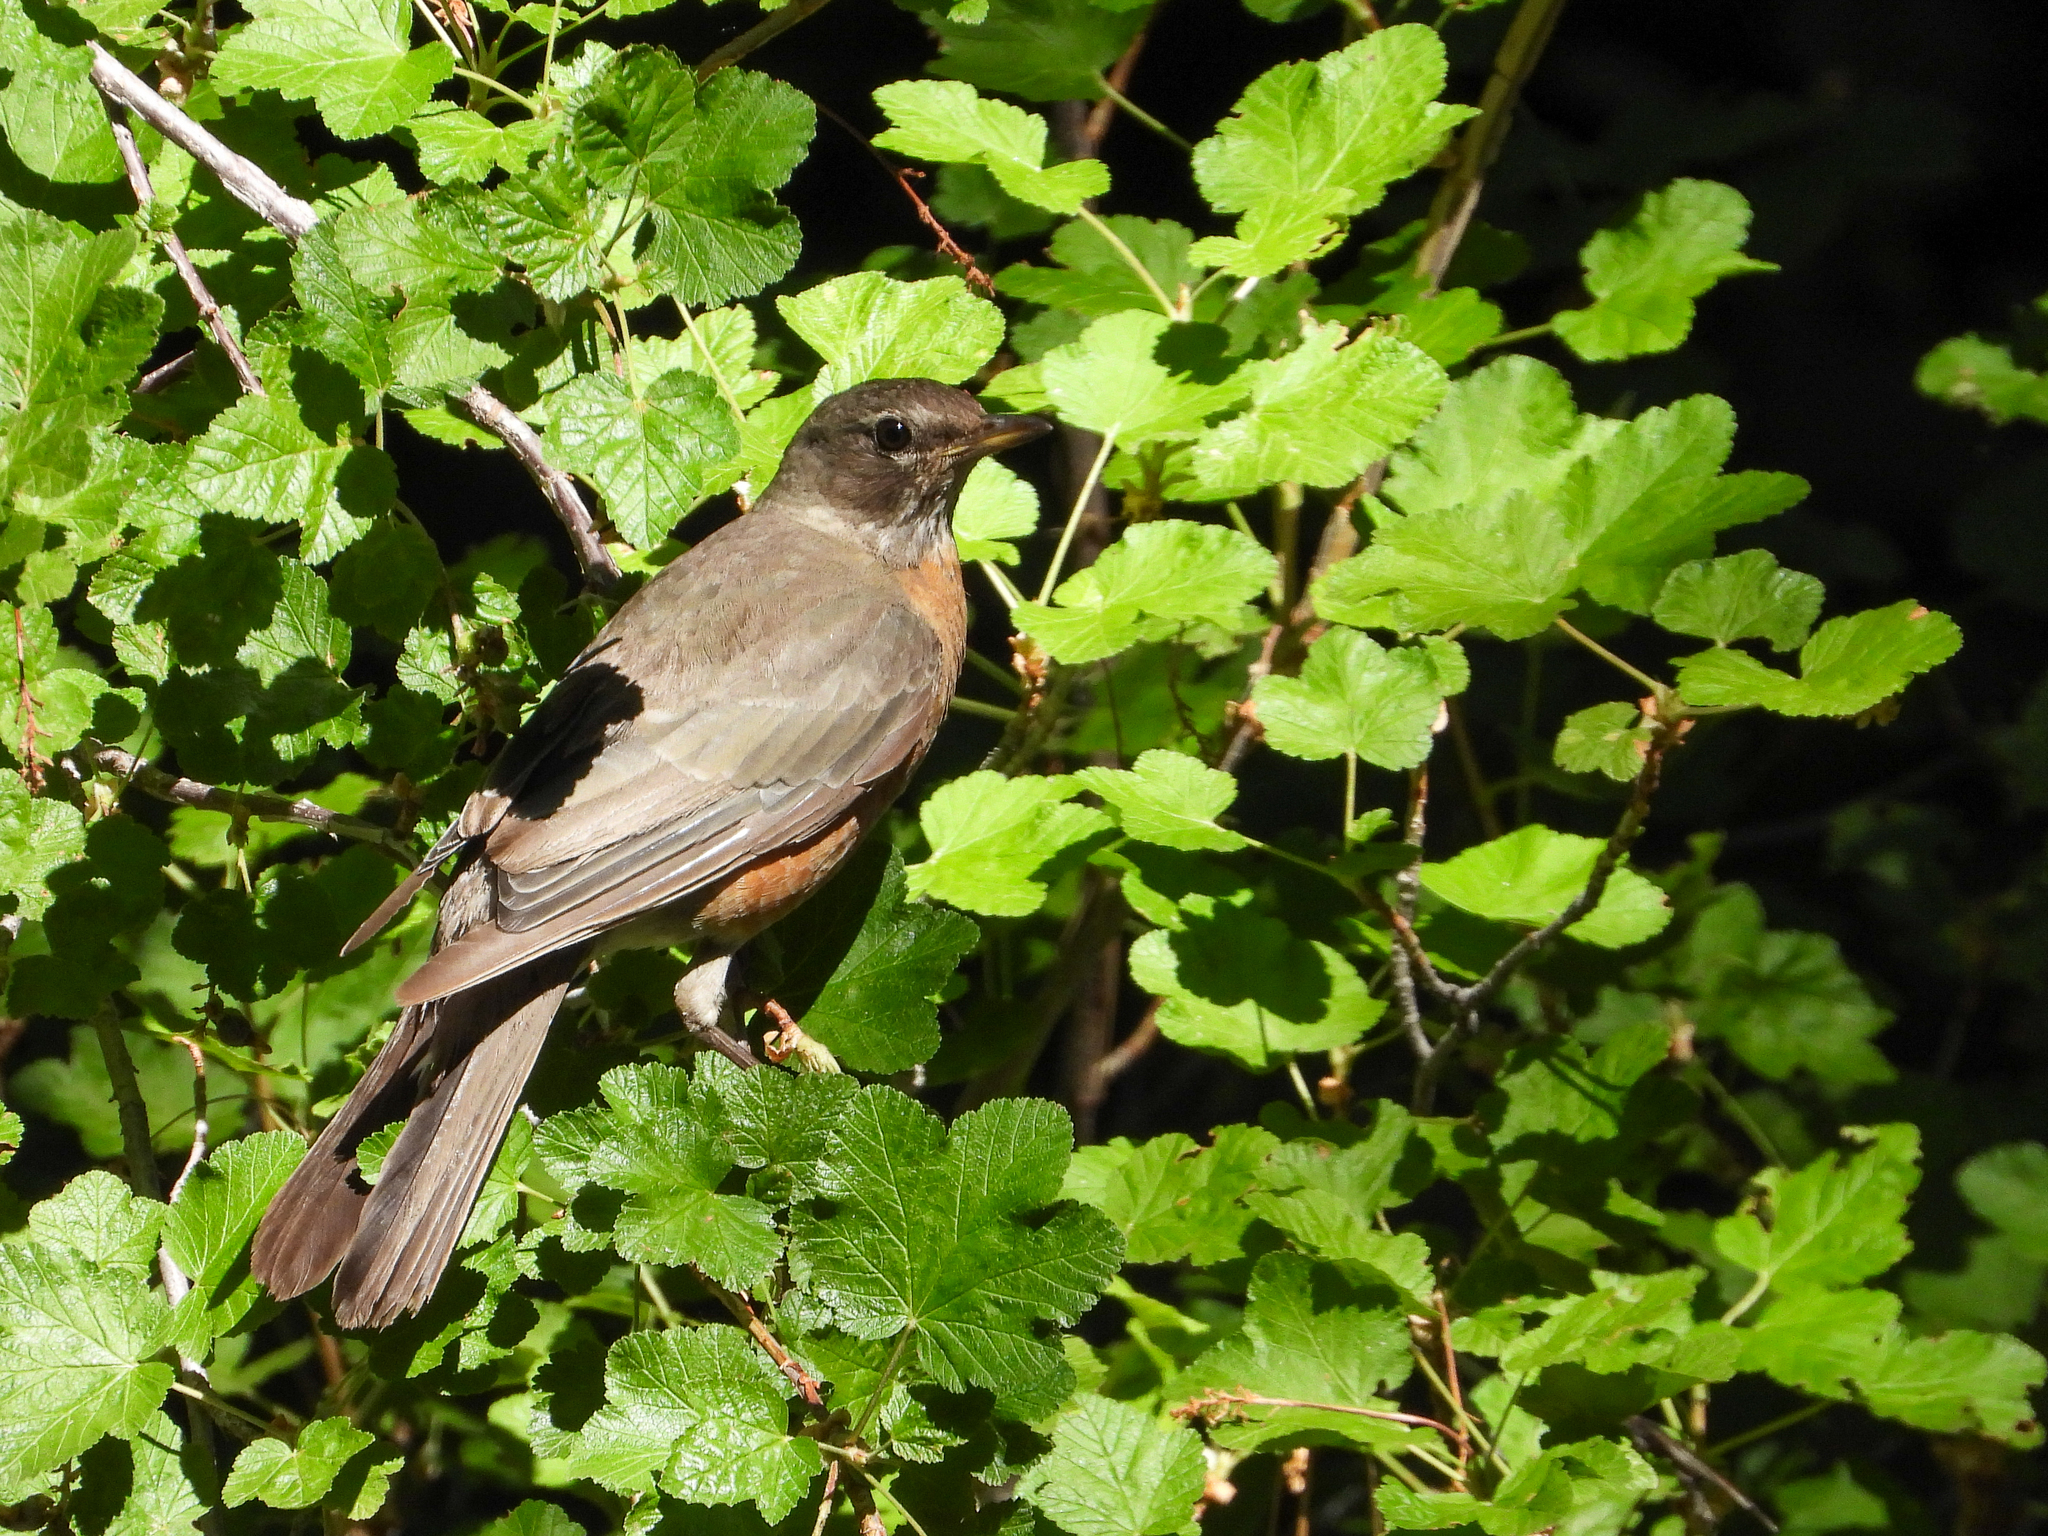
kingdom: Animalia
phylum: Chordata
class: Aves
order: Passeriformes
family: Turdidae
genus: Turdus
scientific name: Turdus migratorius
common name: American robin
